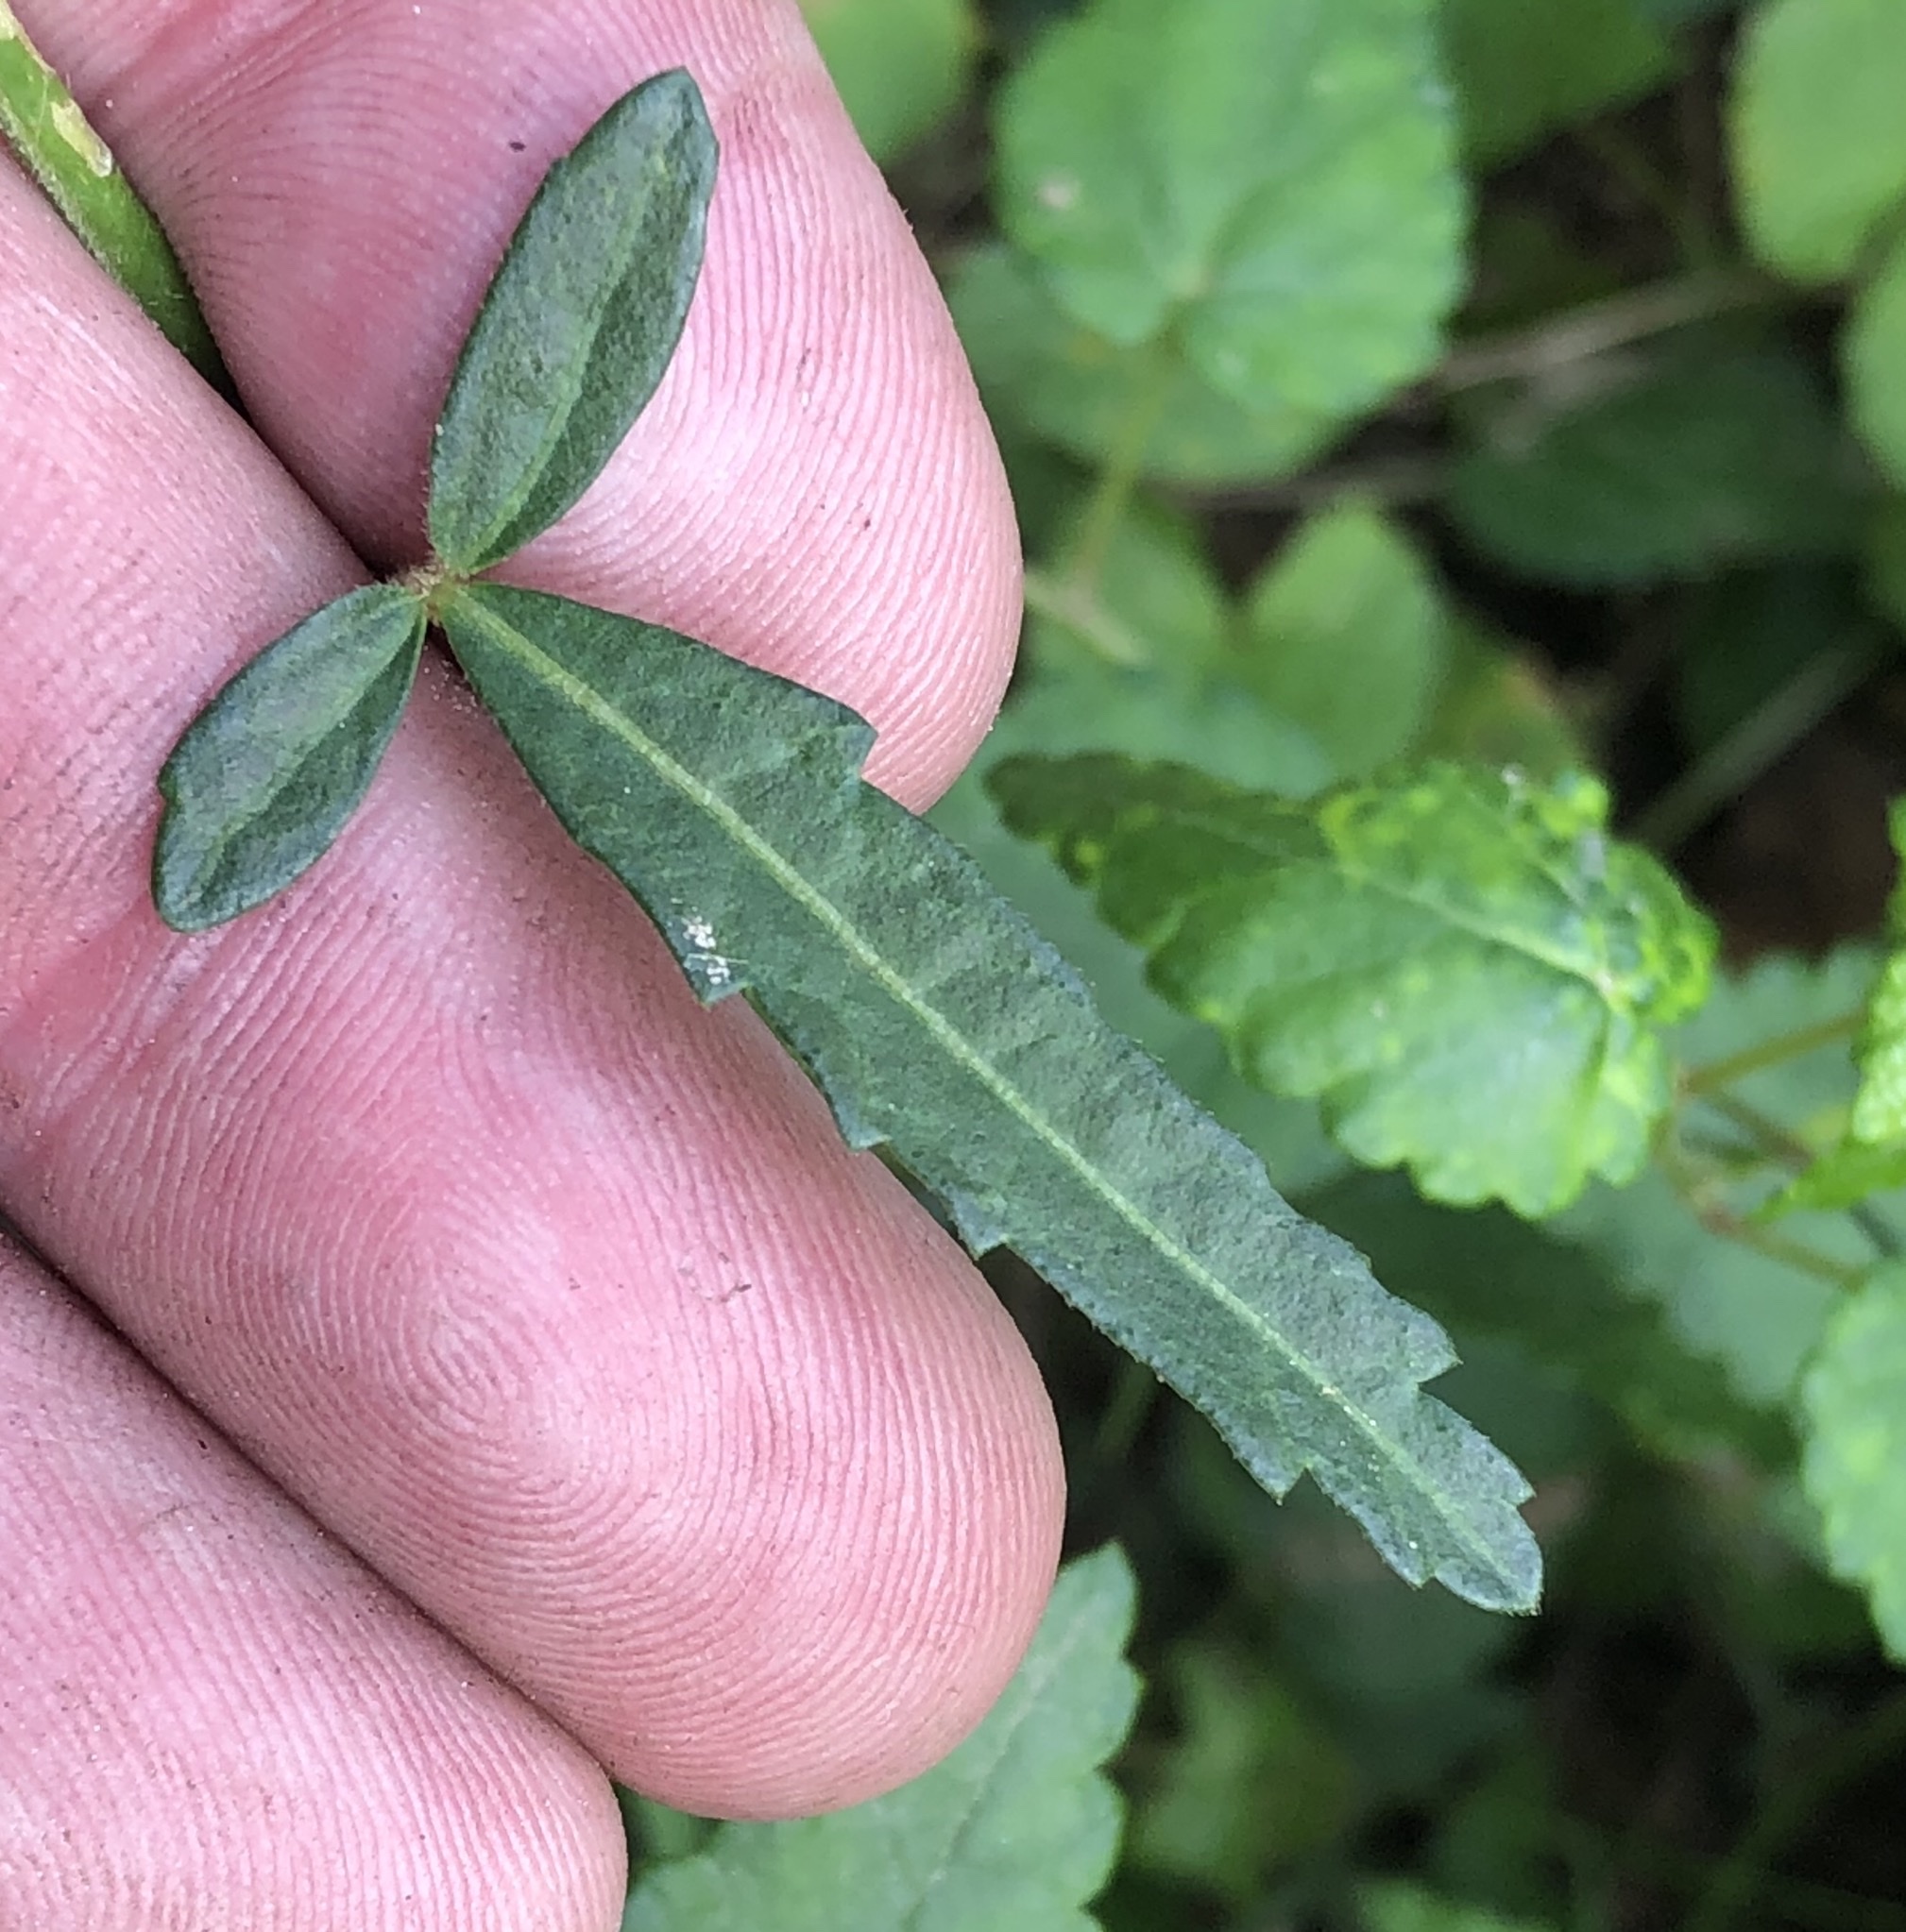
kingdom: Plantae
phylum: Tracheophyta
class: Magnoliopsida
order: Malvales
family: Malvaceae
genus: Hibiscus
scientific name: Hibiscus trionum
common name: Bladder ketmia
